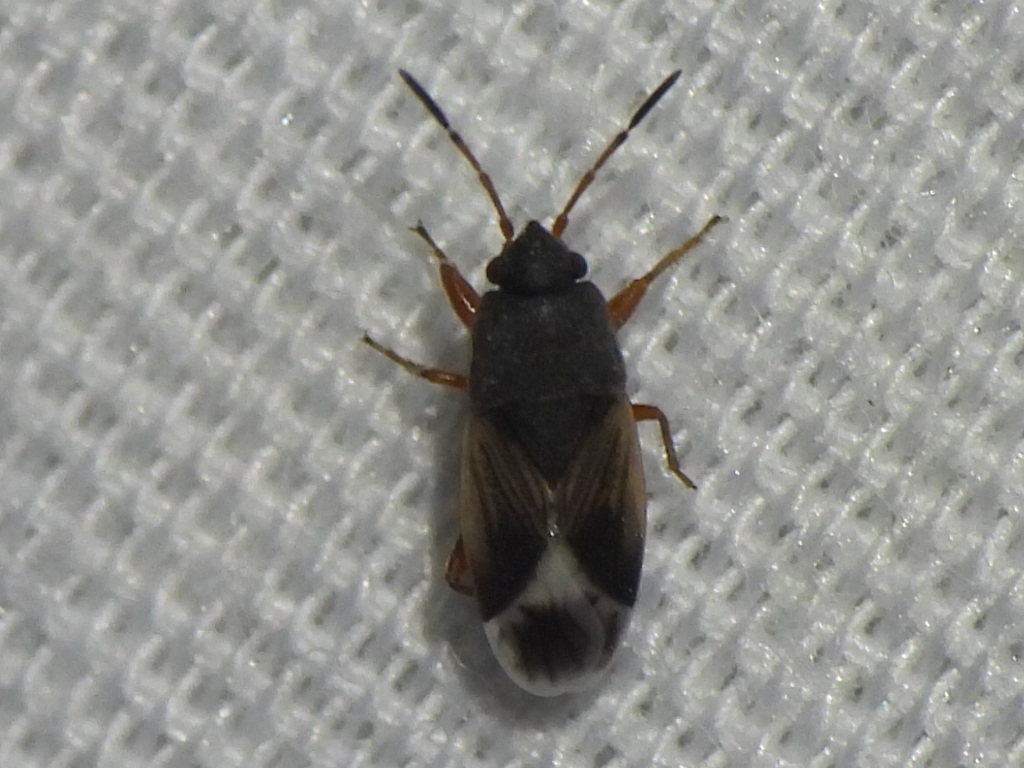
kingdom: Animalia
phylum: Arthropoda
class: Insecta
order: Hemiptera
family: Rhyparochromidae
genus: Malezonotus
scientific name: Malezonotus rufipes
